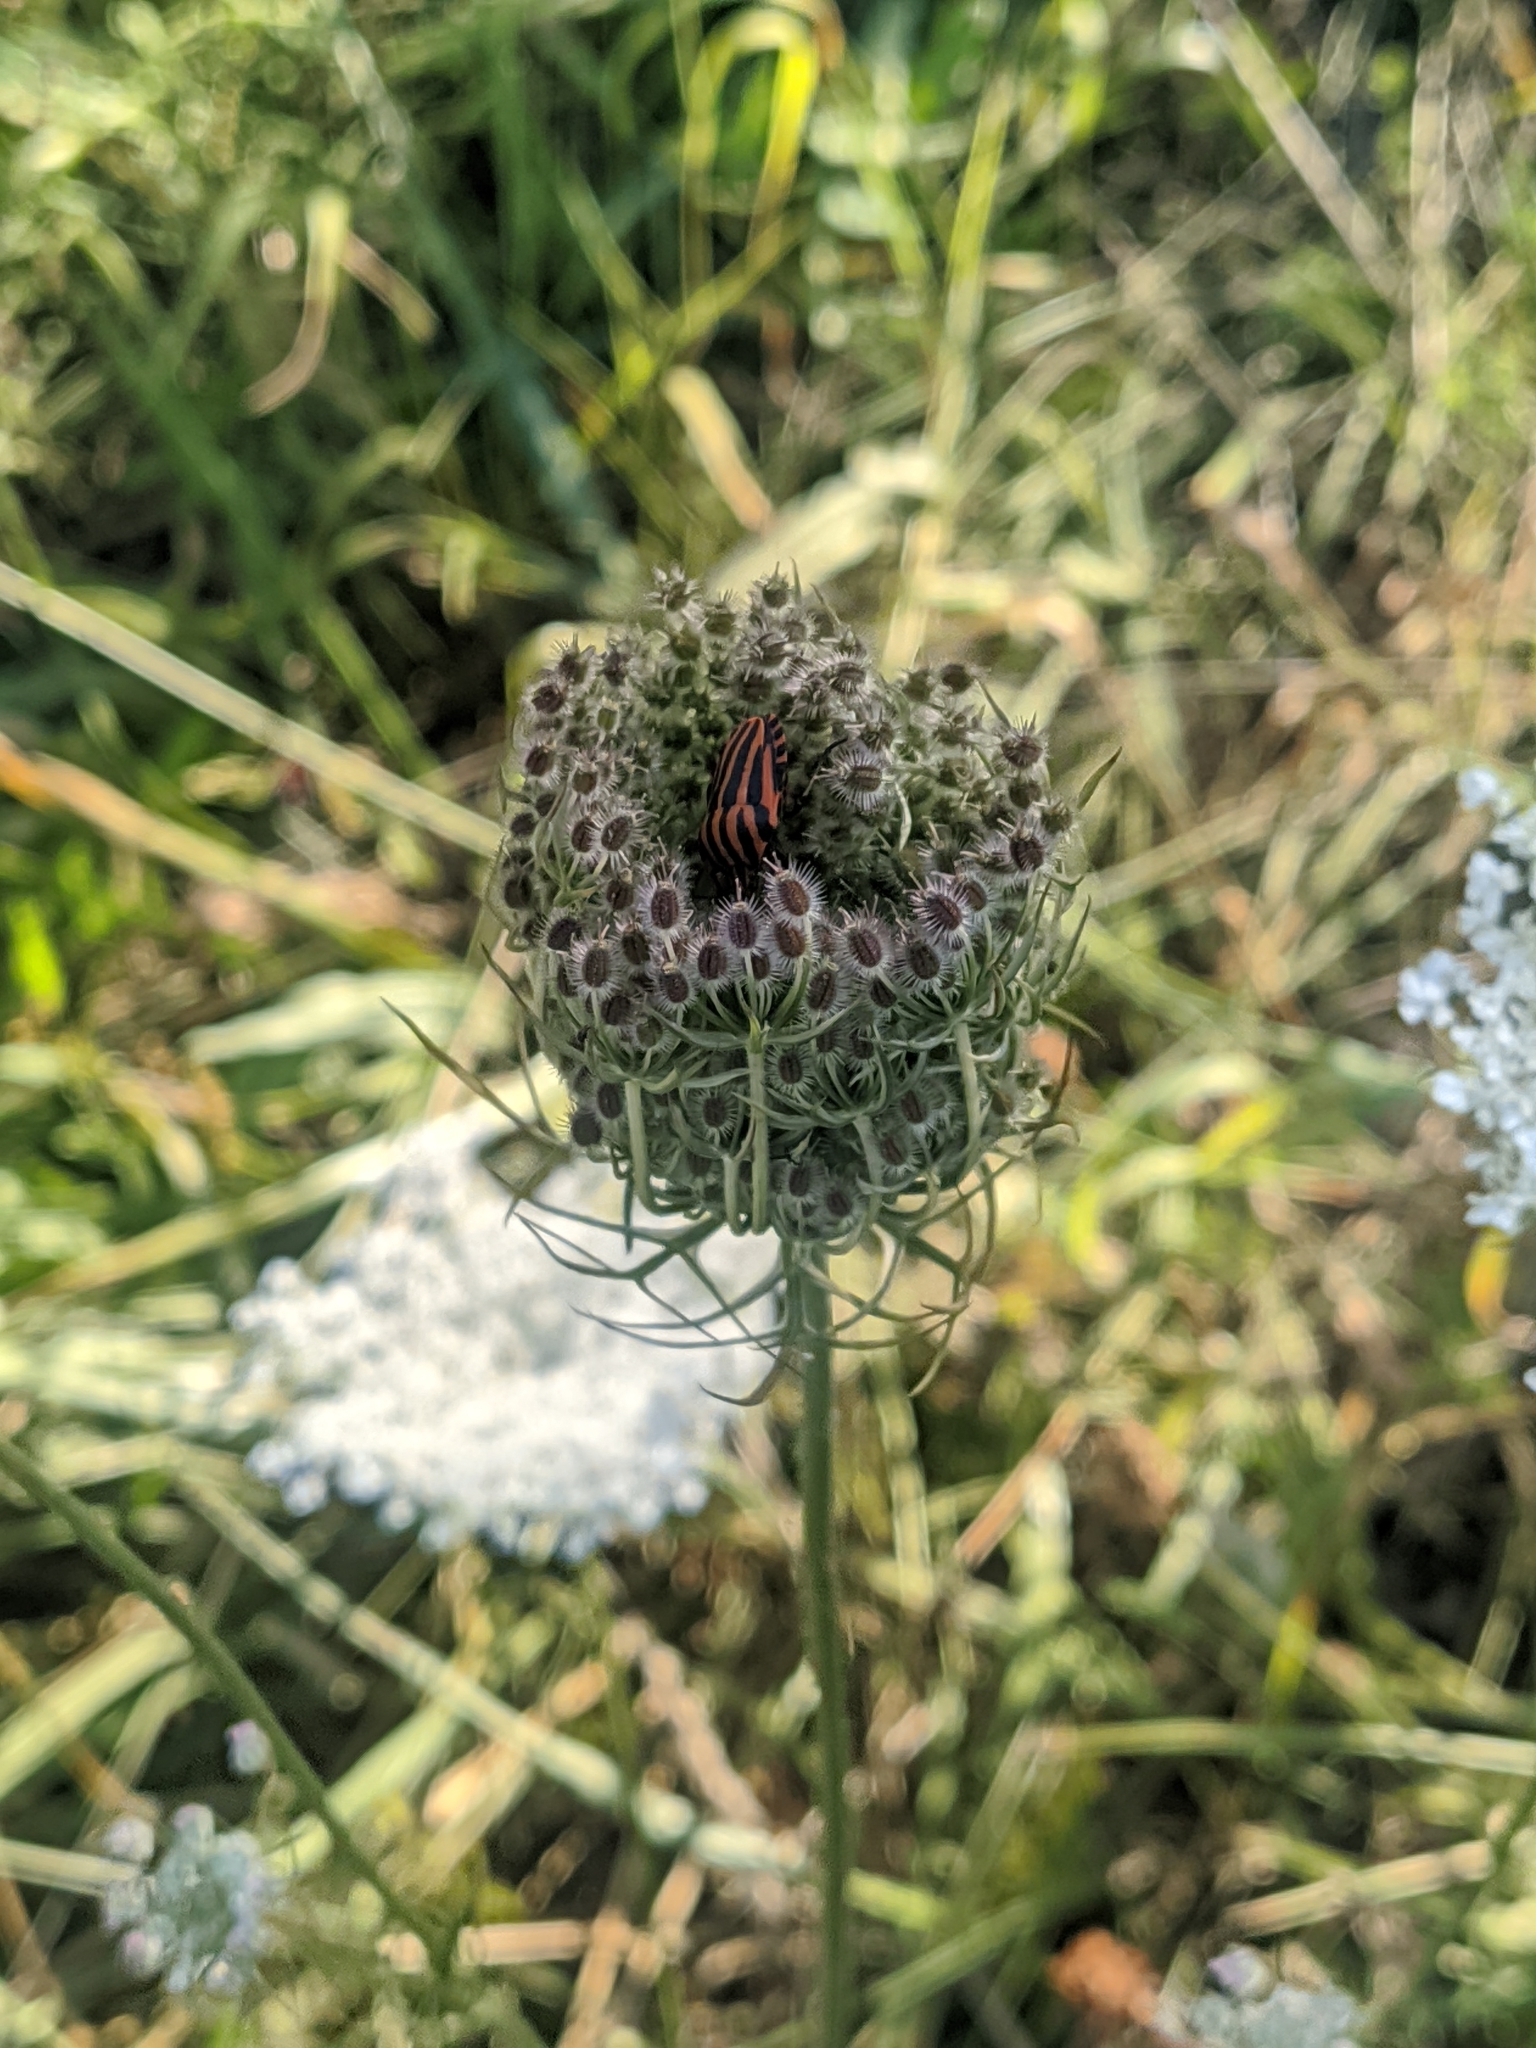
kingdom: Animalia
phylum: Arthropoda
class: Insecta
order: Hemiptera
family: Pentatomidae
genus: Graphosoma
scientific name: Graphosoma italicum
